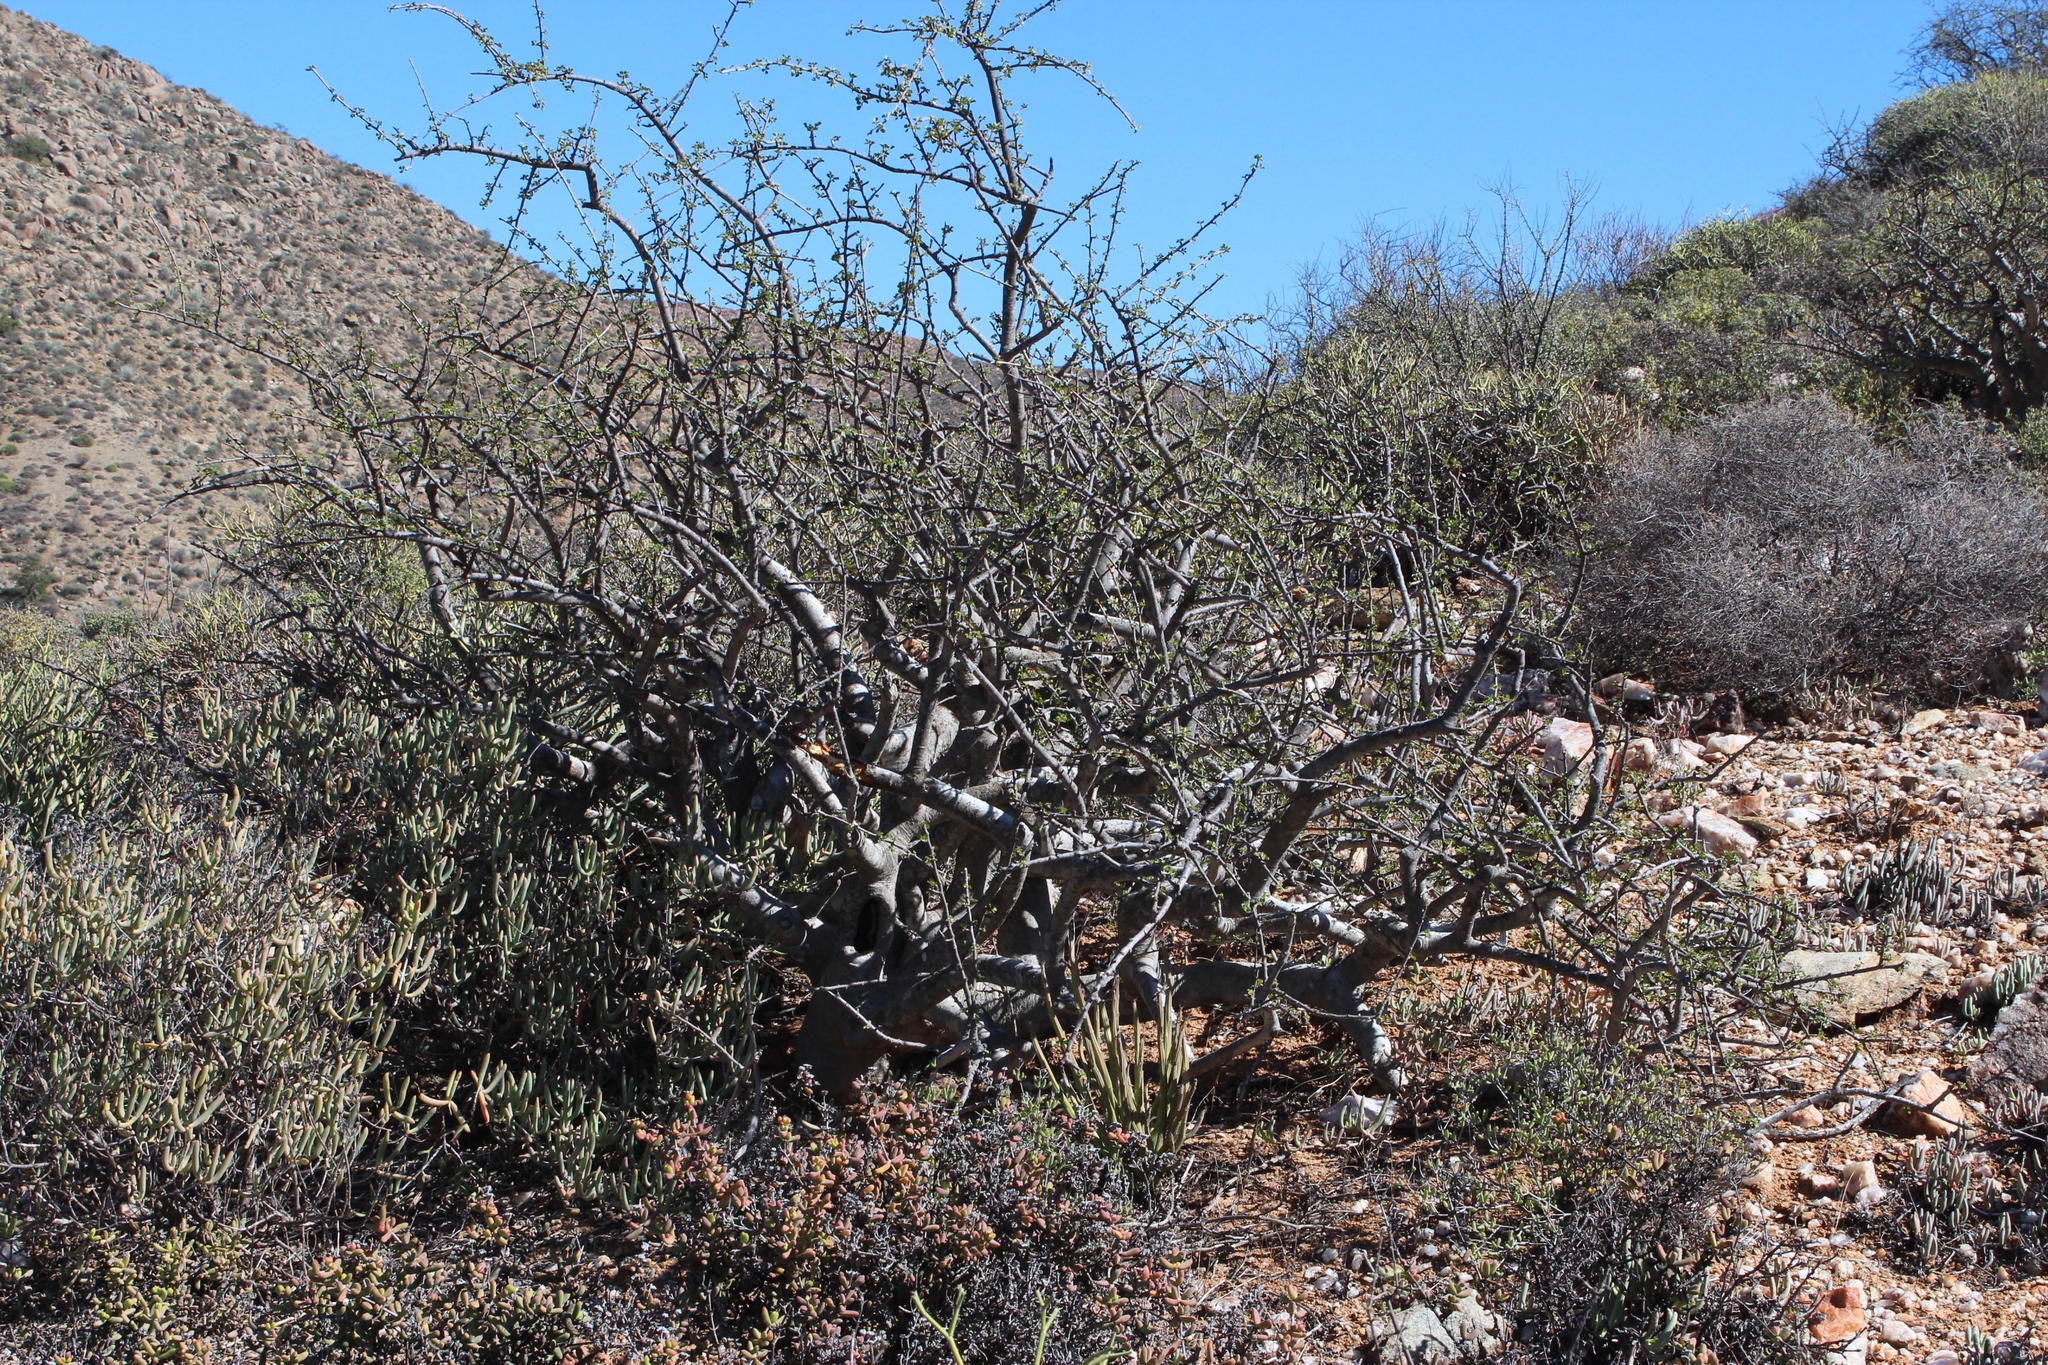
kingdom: Plantae
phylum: Tracheophyta
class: Magnoliopsida
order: Sapindales
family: Burseraceae
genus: Commiphora
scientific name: Commiphora capensis
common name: Namaqua commiphora
